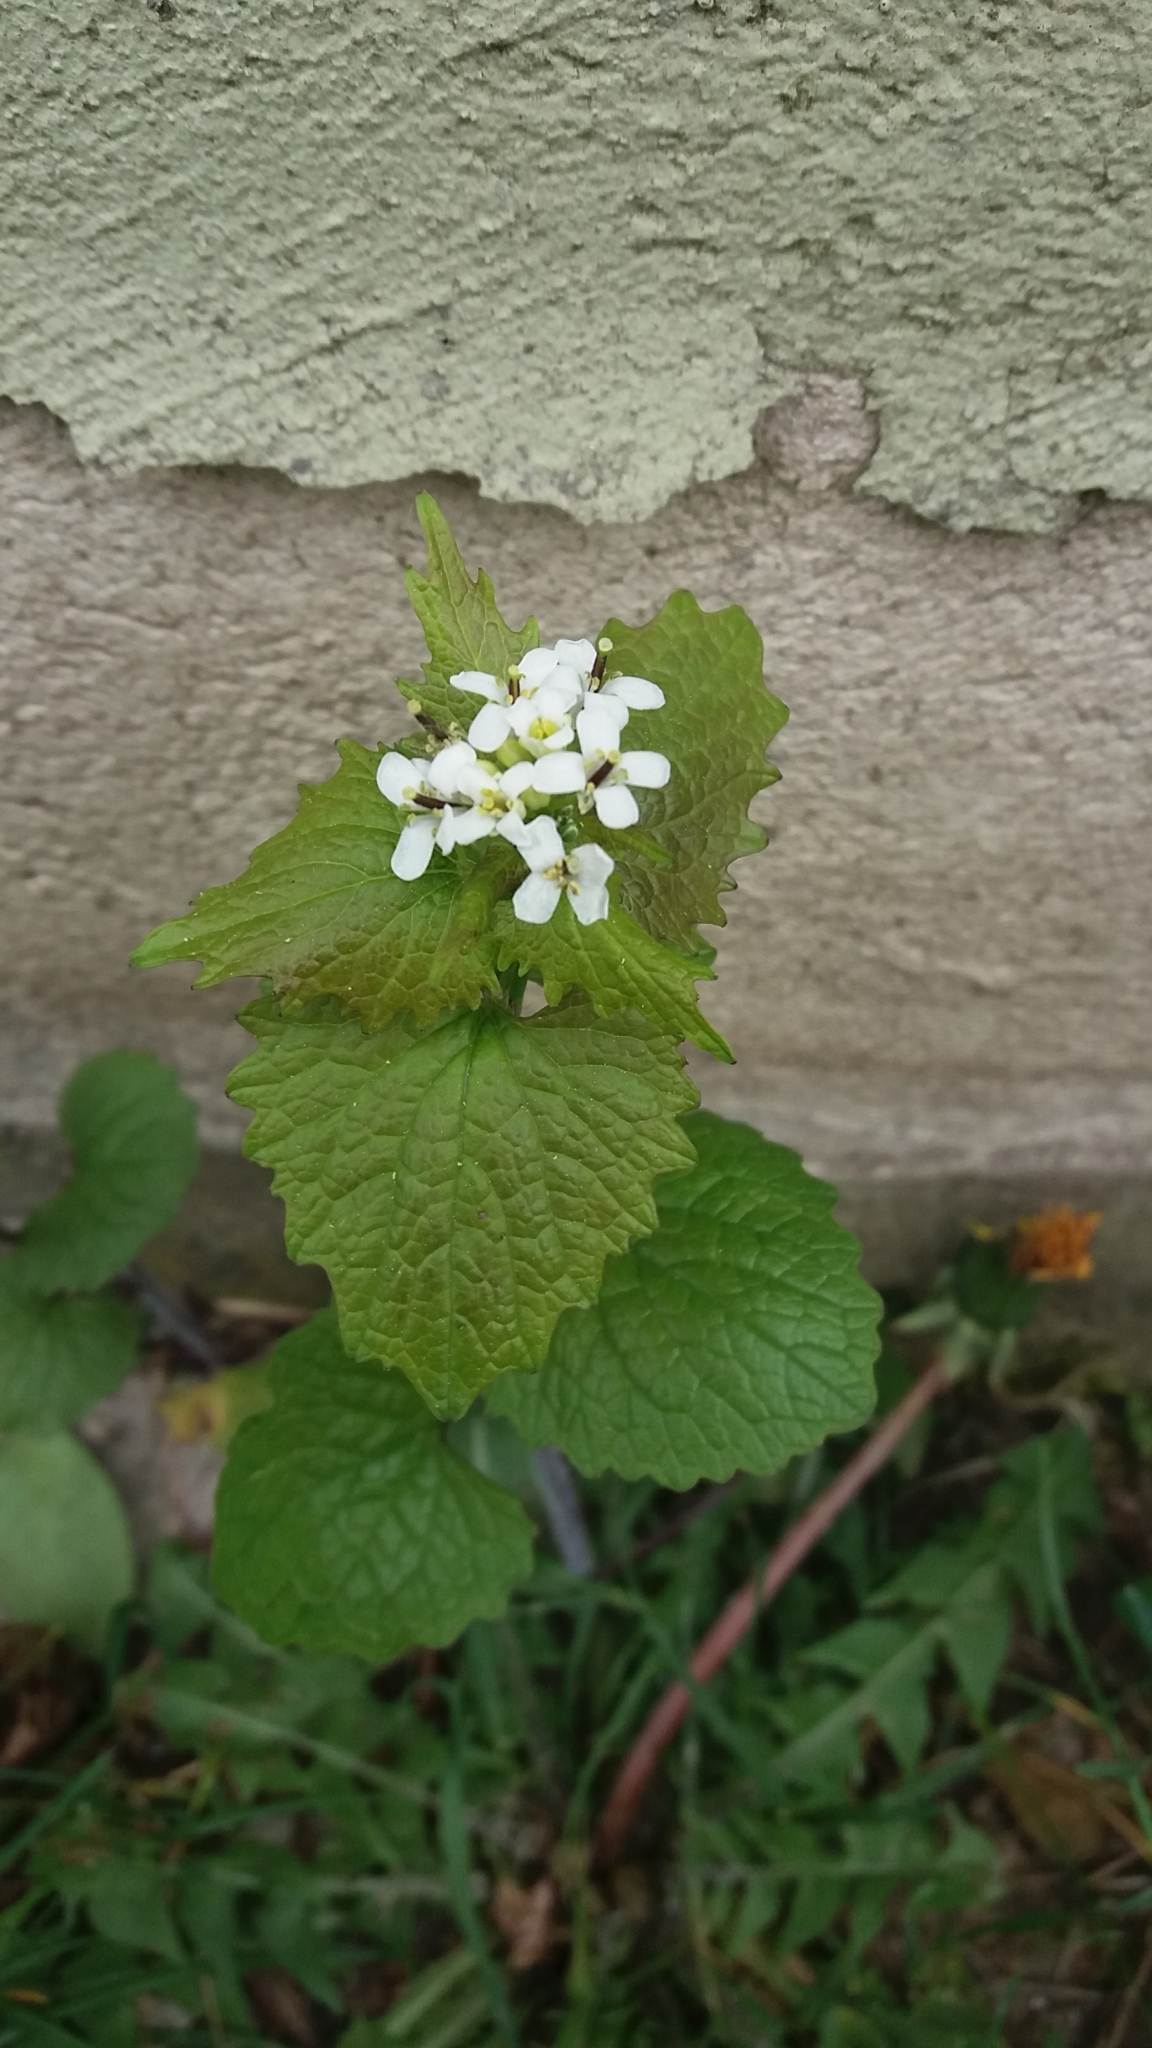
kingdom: Plantae
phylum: Tracheophyta
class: Magnoliopsida
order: Brassicales
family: Brassicaceae
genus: Alliaria
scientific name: Alliaria petiolata
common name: Garlic mustard
